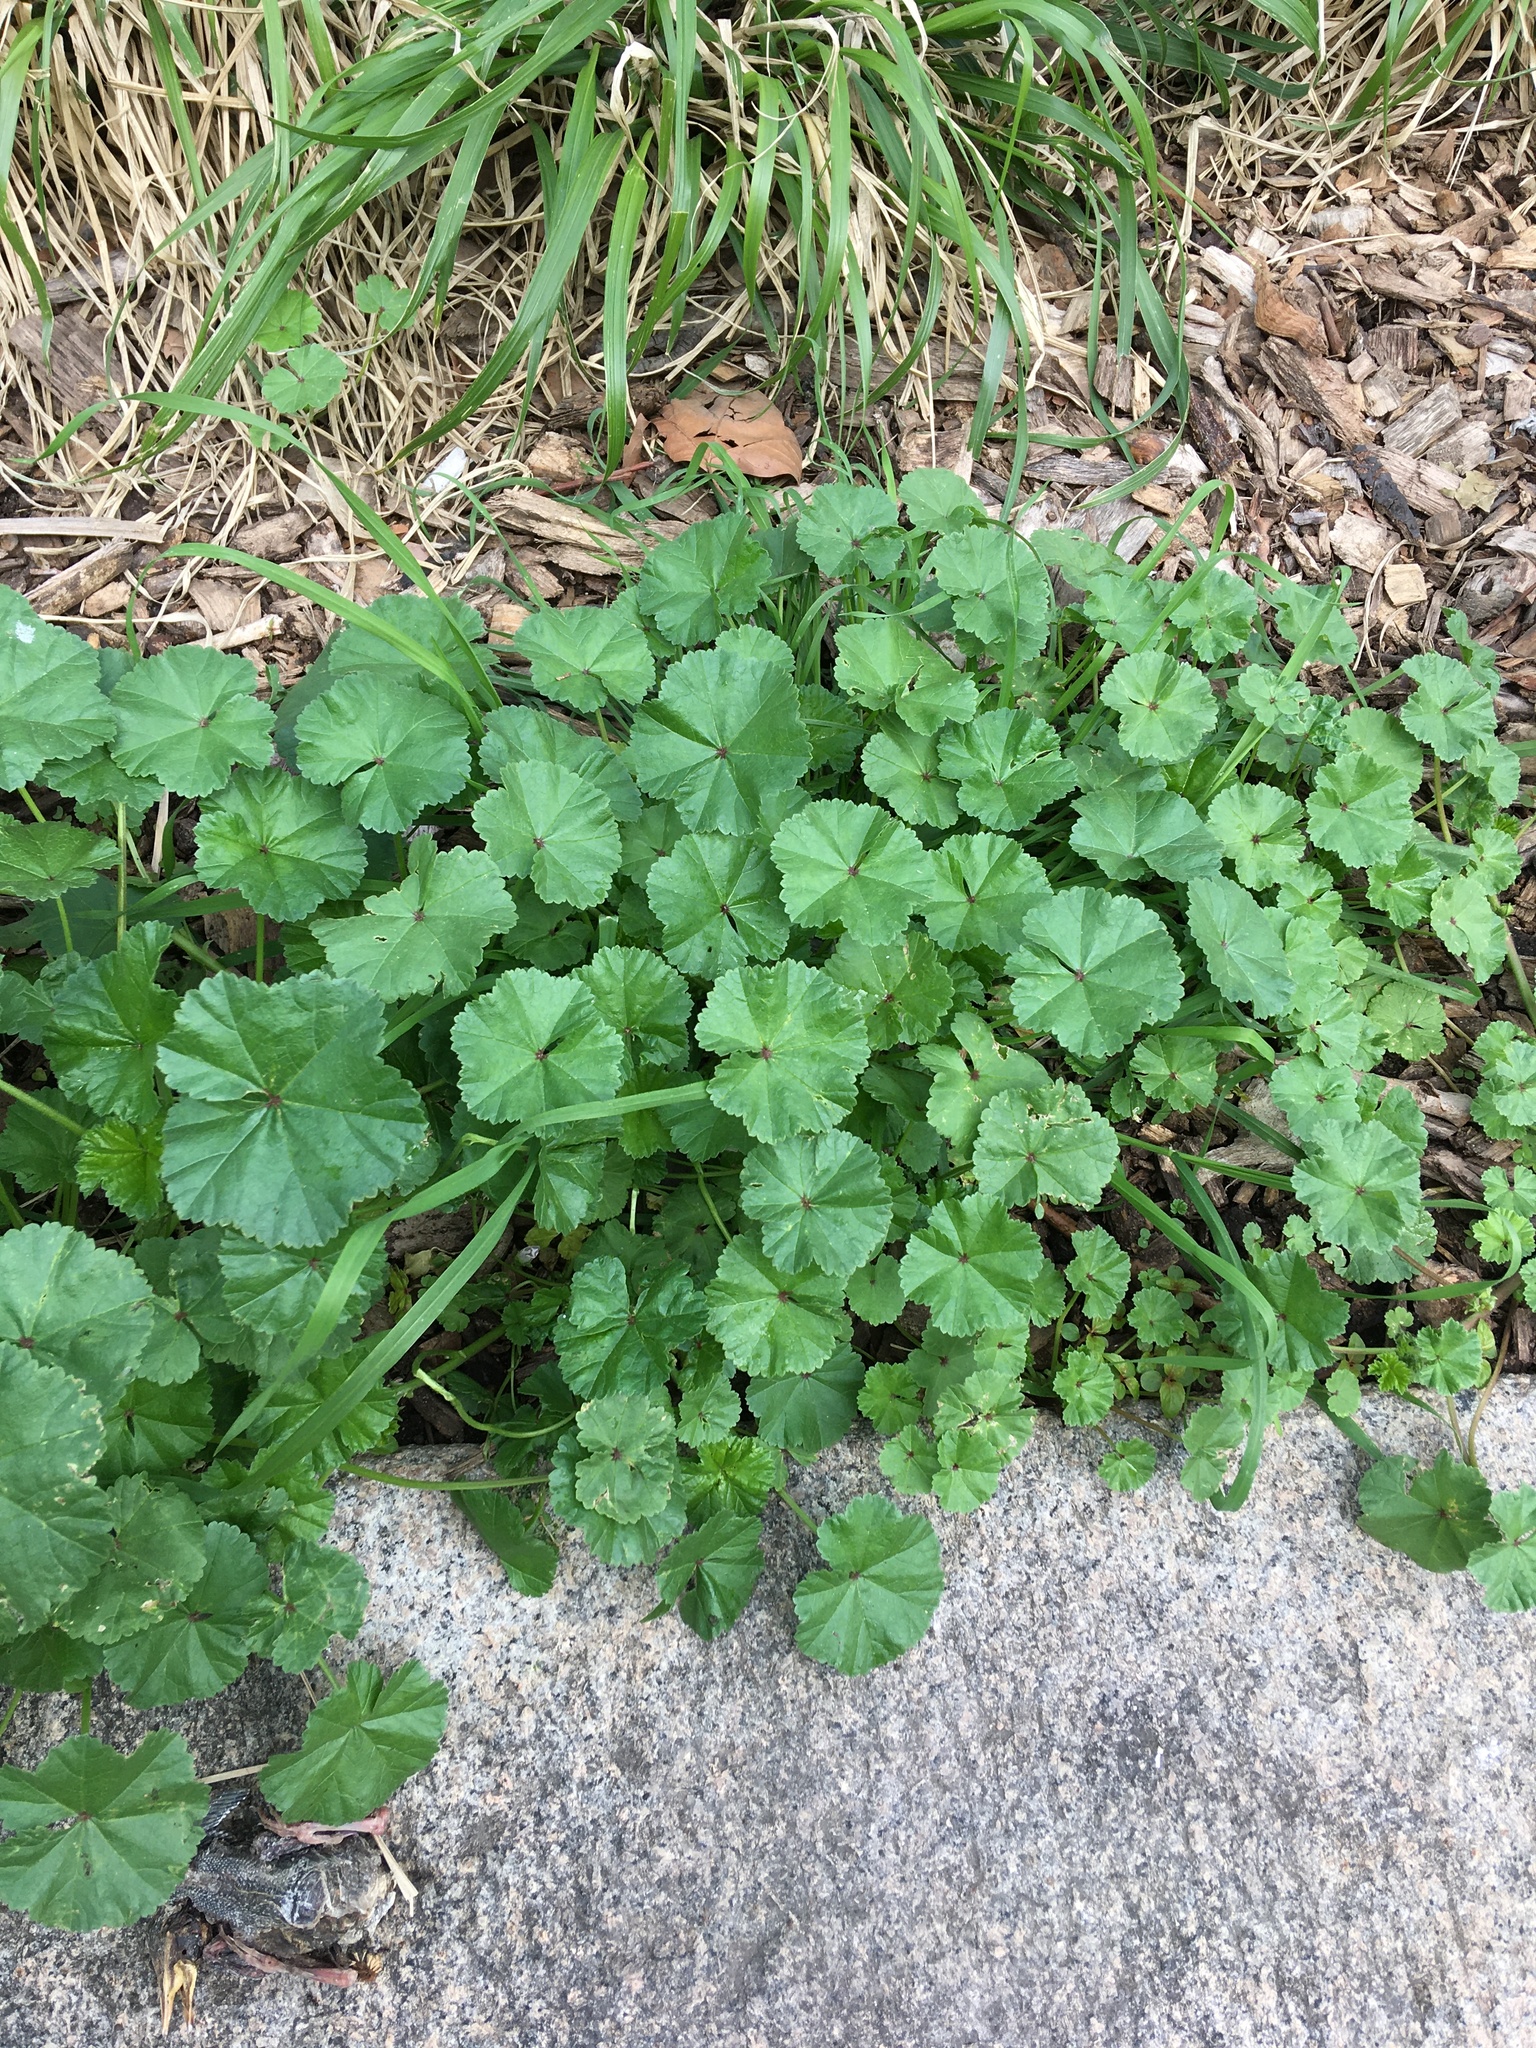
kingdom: Plantae
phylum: Tracheophyta
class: Magnoliopsida
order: Malvales
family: Malvaceae
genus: Malva
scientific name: Malva neglecta
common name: Common mallow
